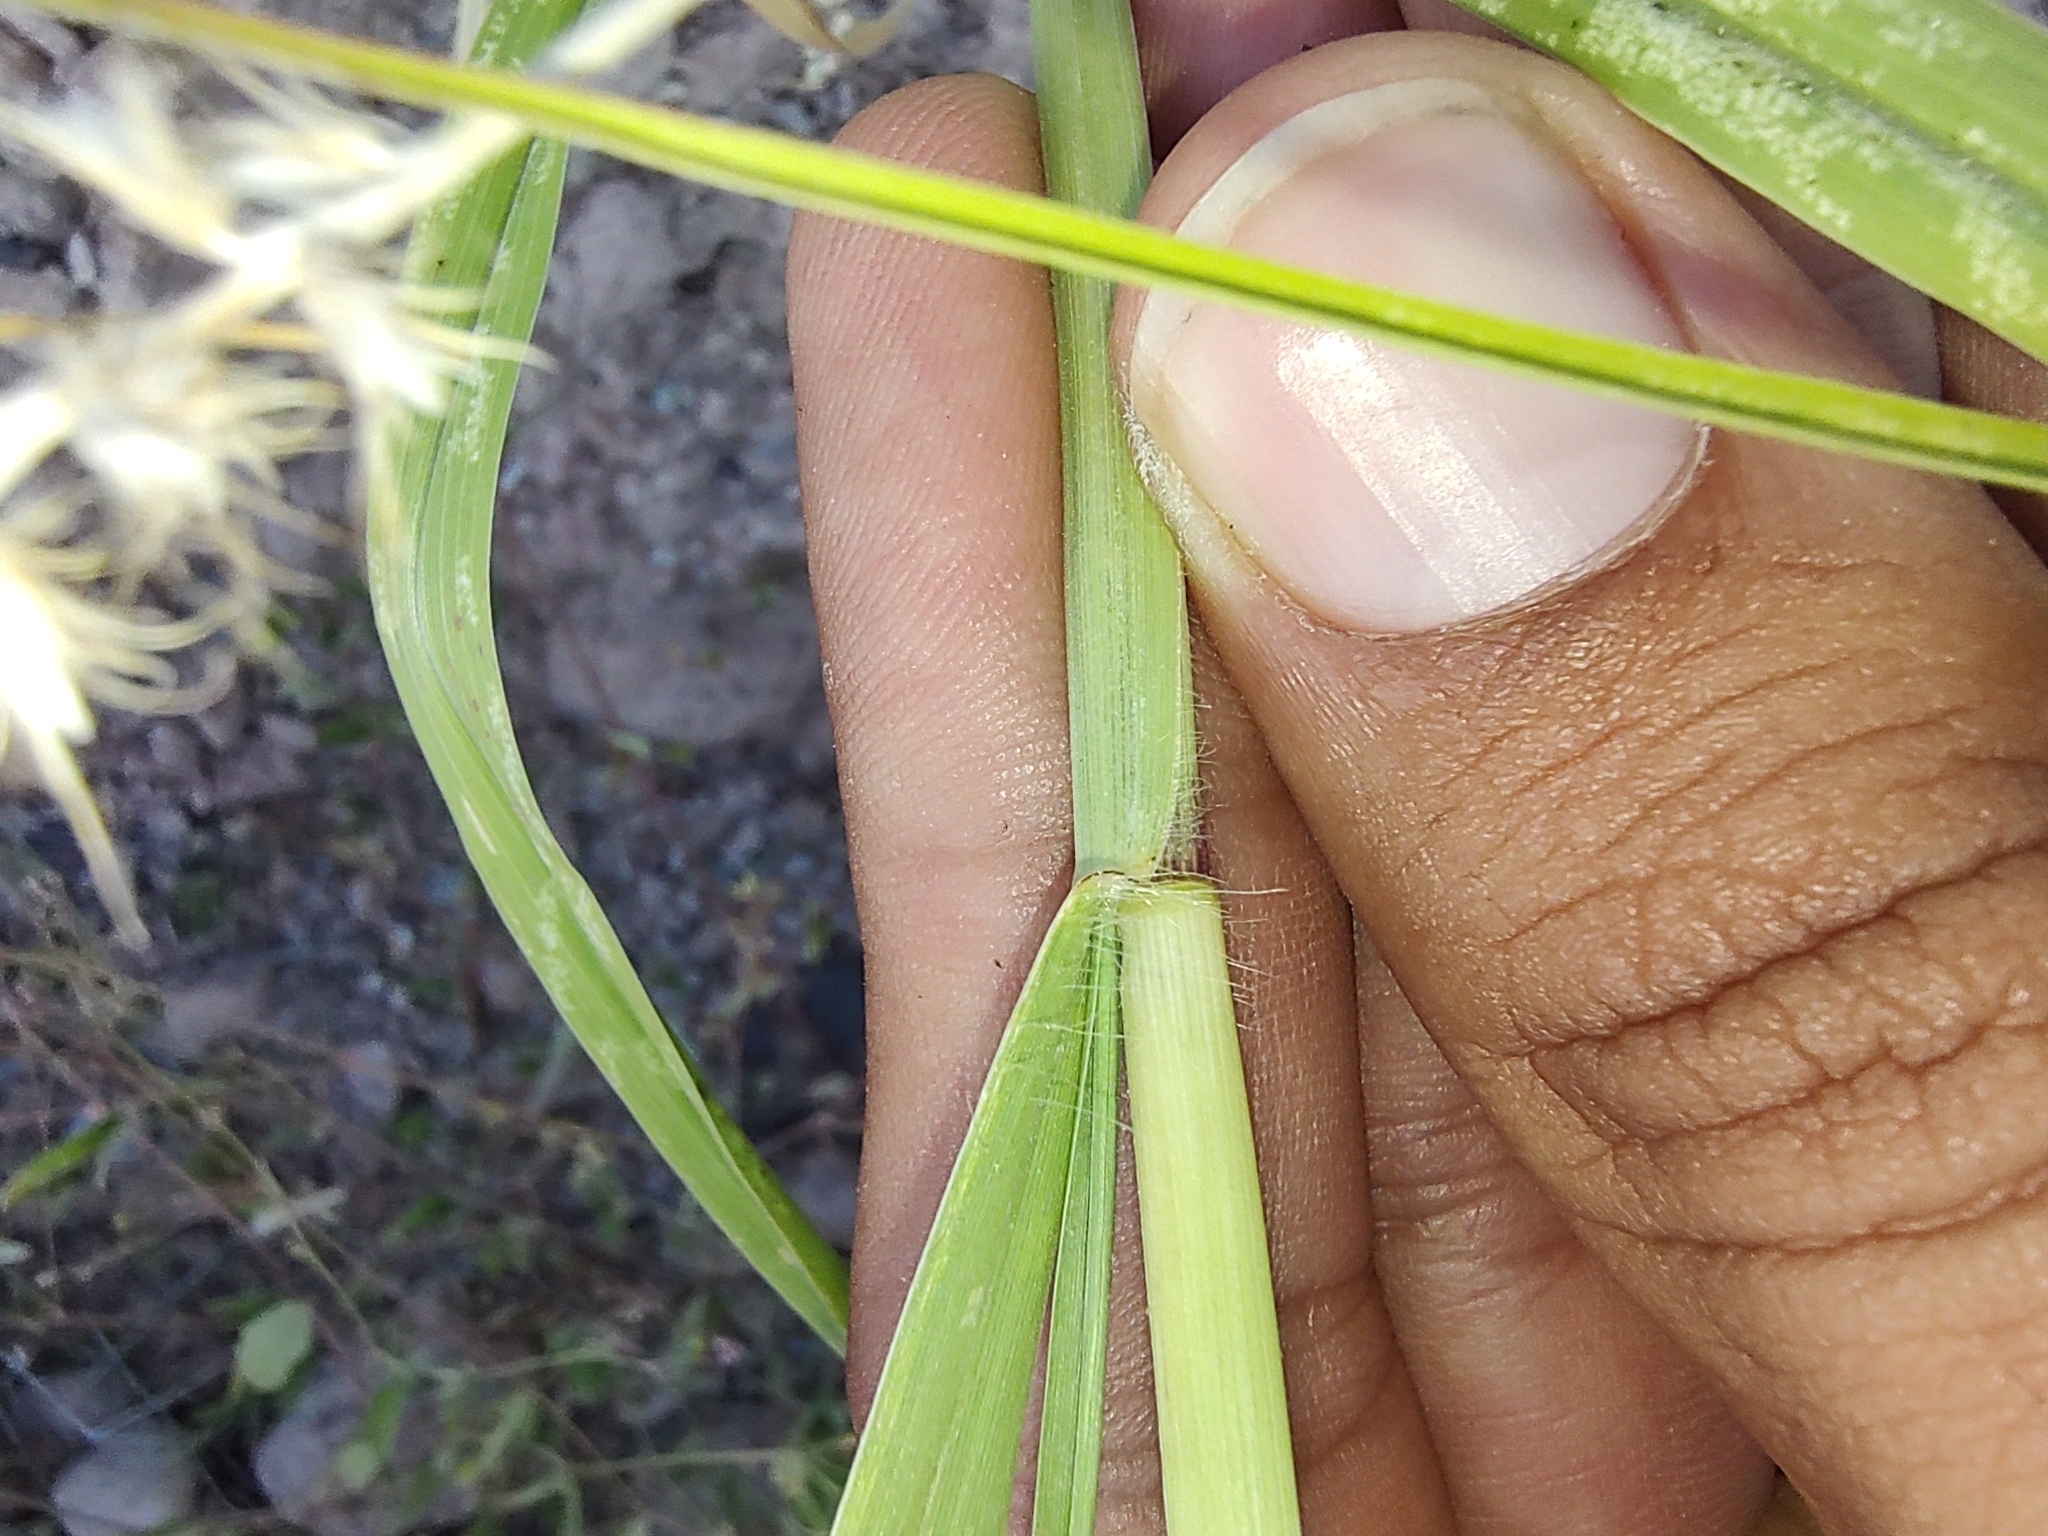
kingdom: Plantae
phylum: Tracheophyta
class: Liliopsida
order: Poales
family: Poaceae
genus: Cenchrus
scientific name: Cenchrus ciliaris
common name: Buffelgrass
